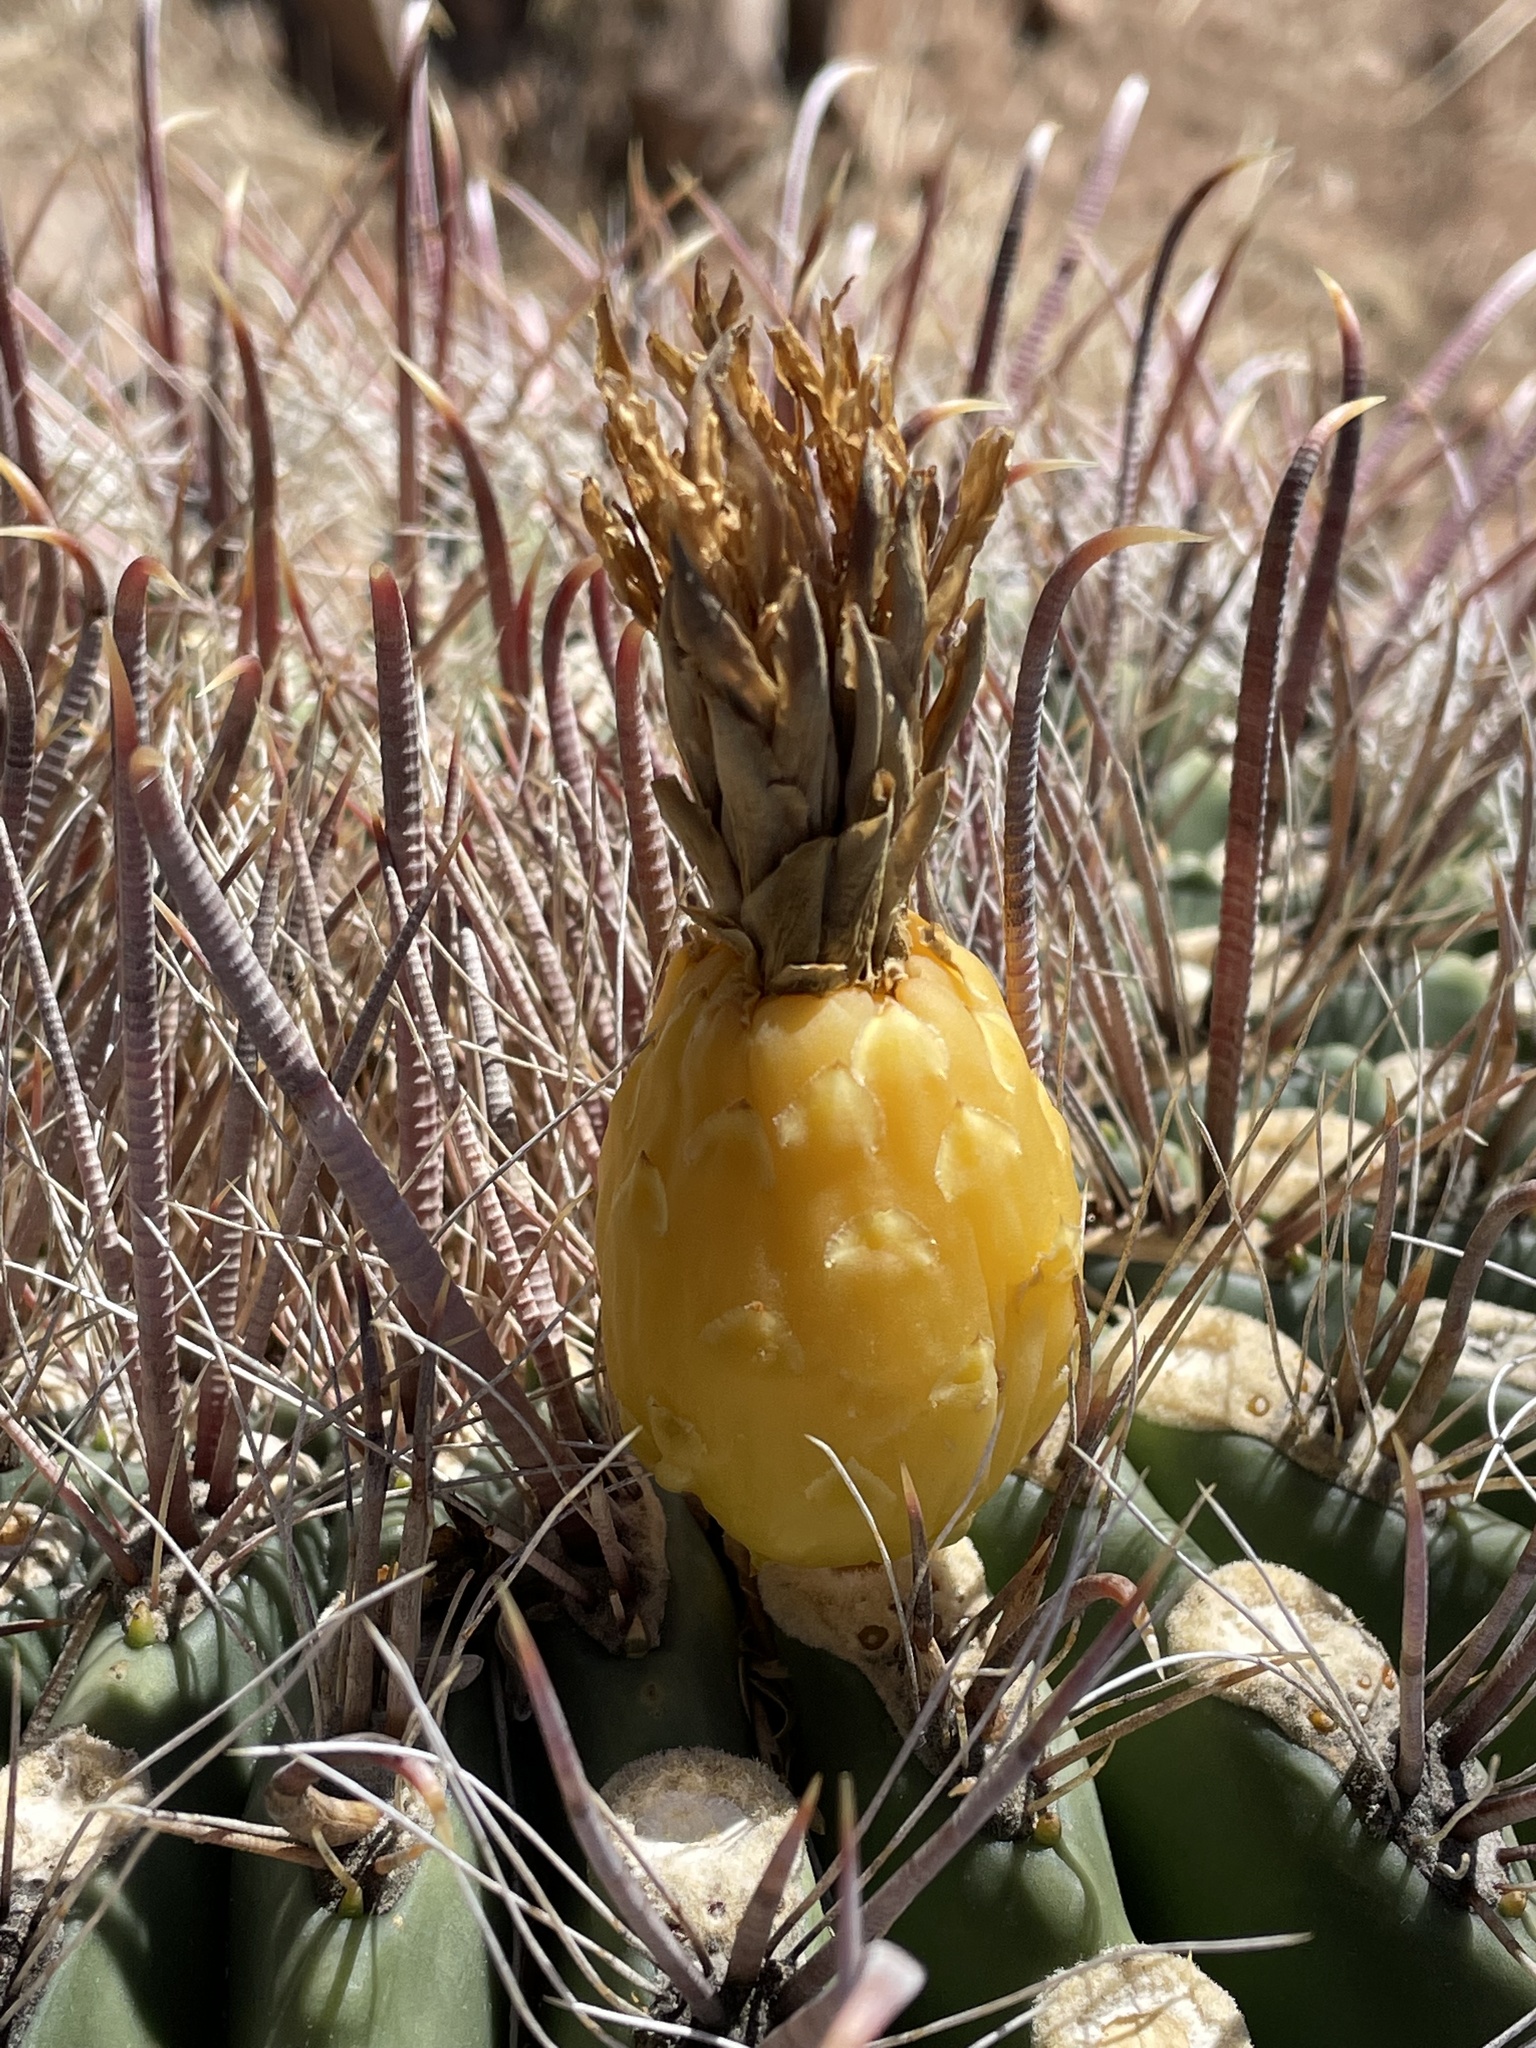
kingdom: Plantae
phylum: Tracheophyta
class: Magnoliopsida
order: Caryophyllales
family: Cactaceae
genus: Ferocactus
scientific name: Ferocactus wislizeni
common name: Candy barrel cactus
